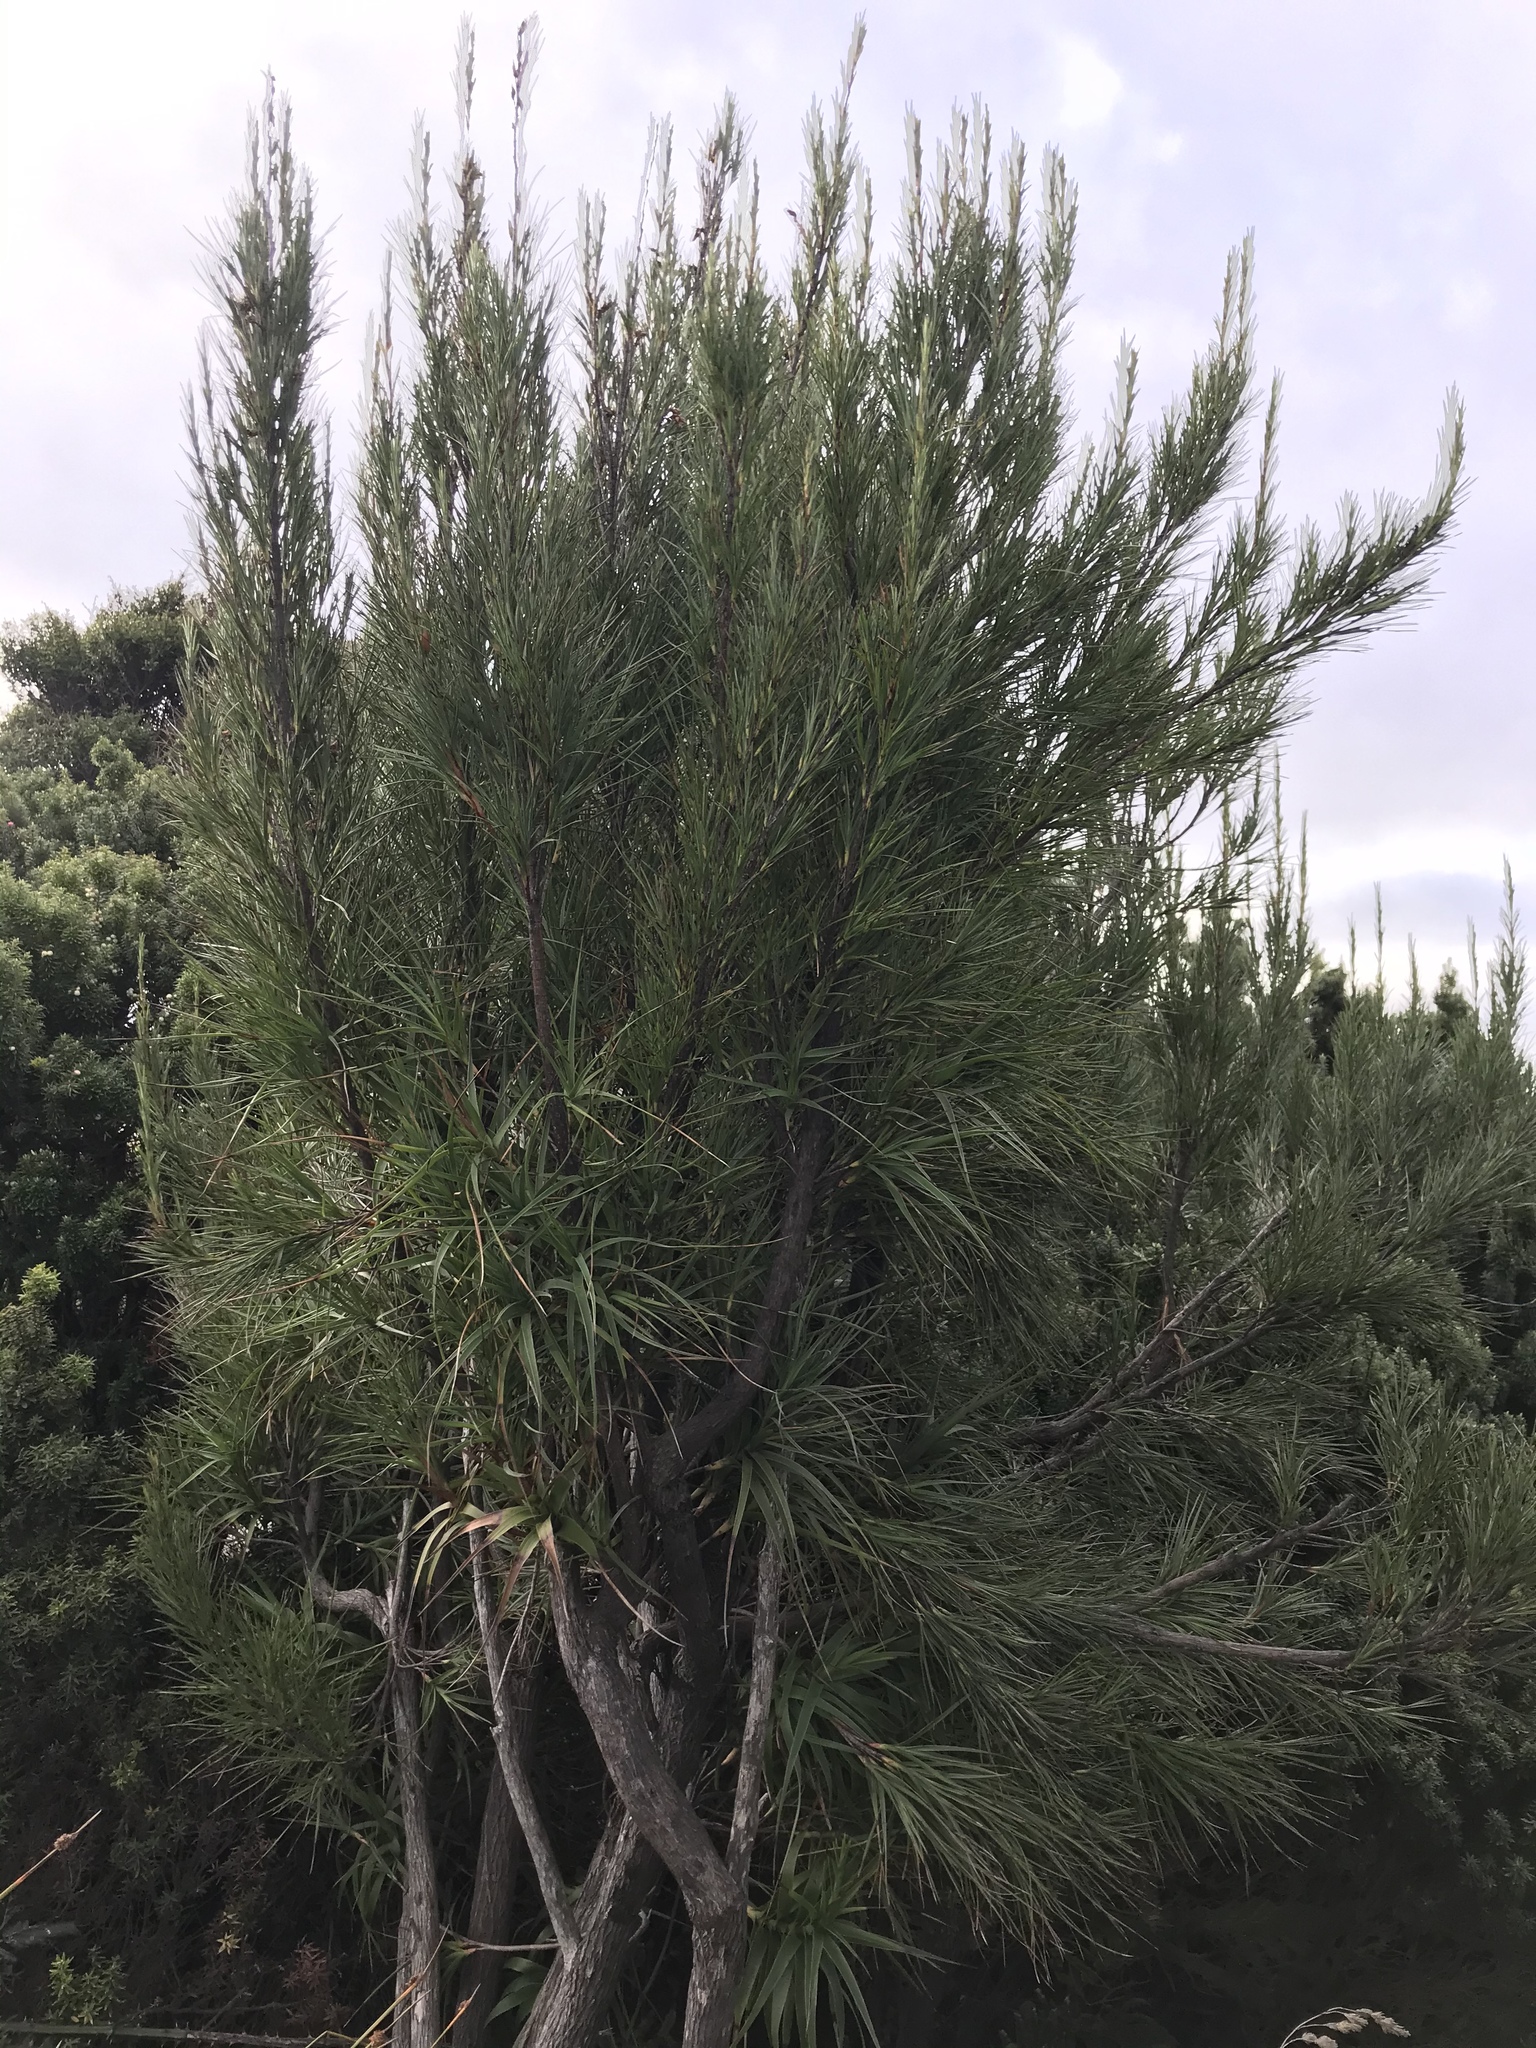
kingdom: Plantae
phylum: Tracheophyta
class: Magnoliopsida
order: Ericales
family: Ericaceae
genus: Dracophyllum
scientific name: Dracophyllum arboreum
